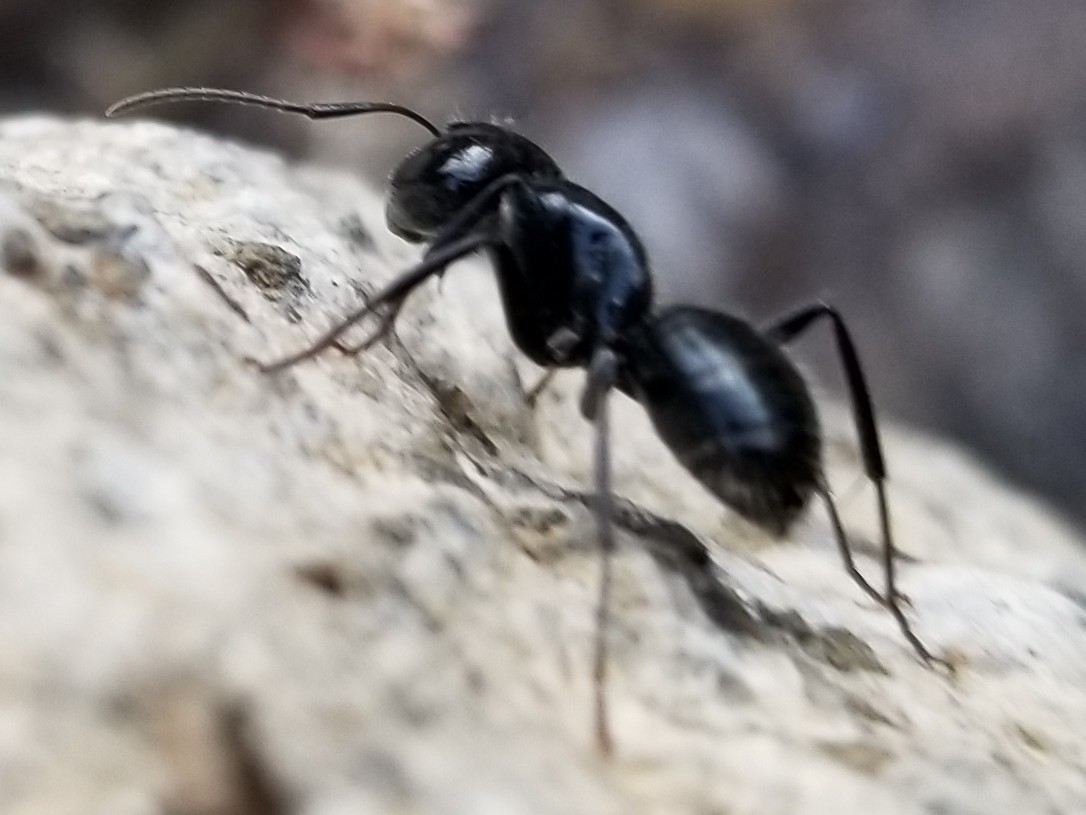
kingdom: Animalia
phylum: Arthropoda
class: Insecta
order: Hymenoptera
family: Formicidae
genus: Camponotus
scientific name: Camponotus
